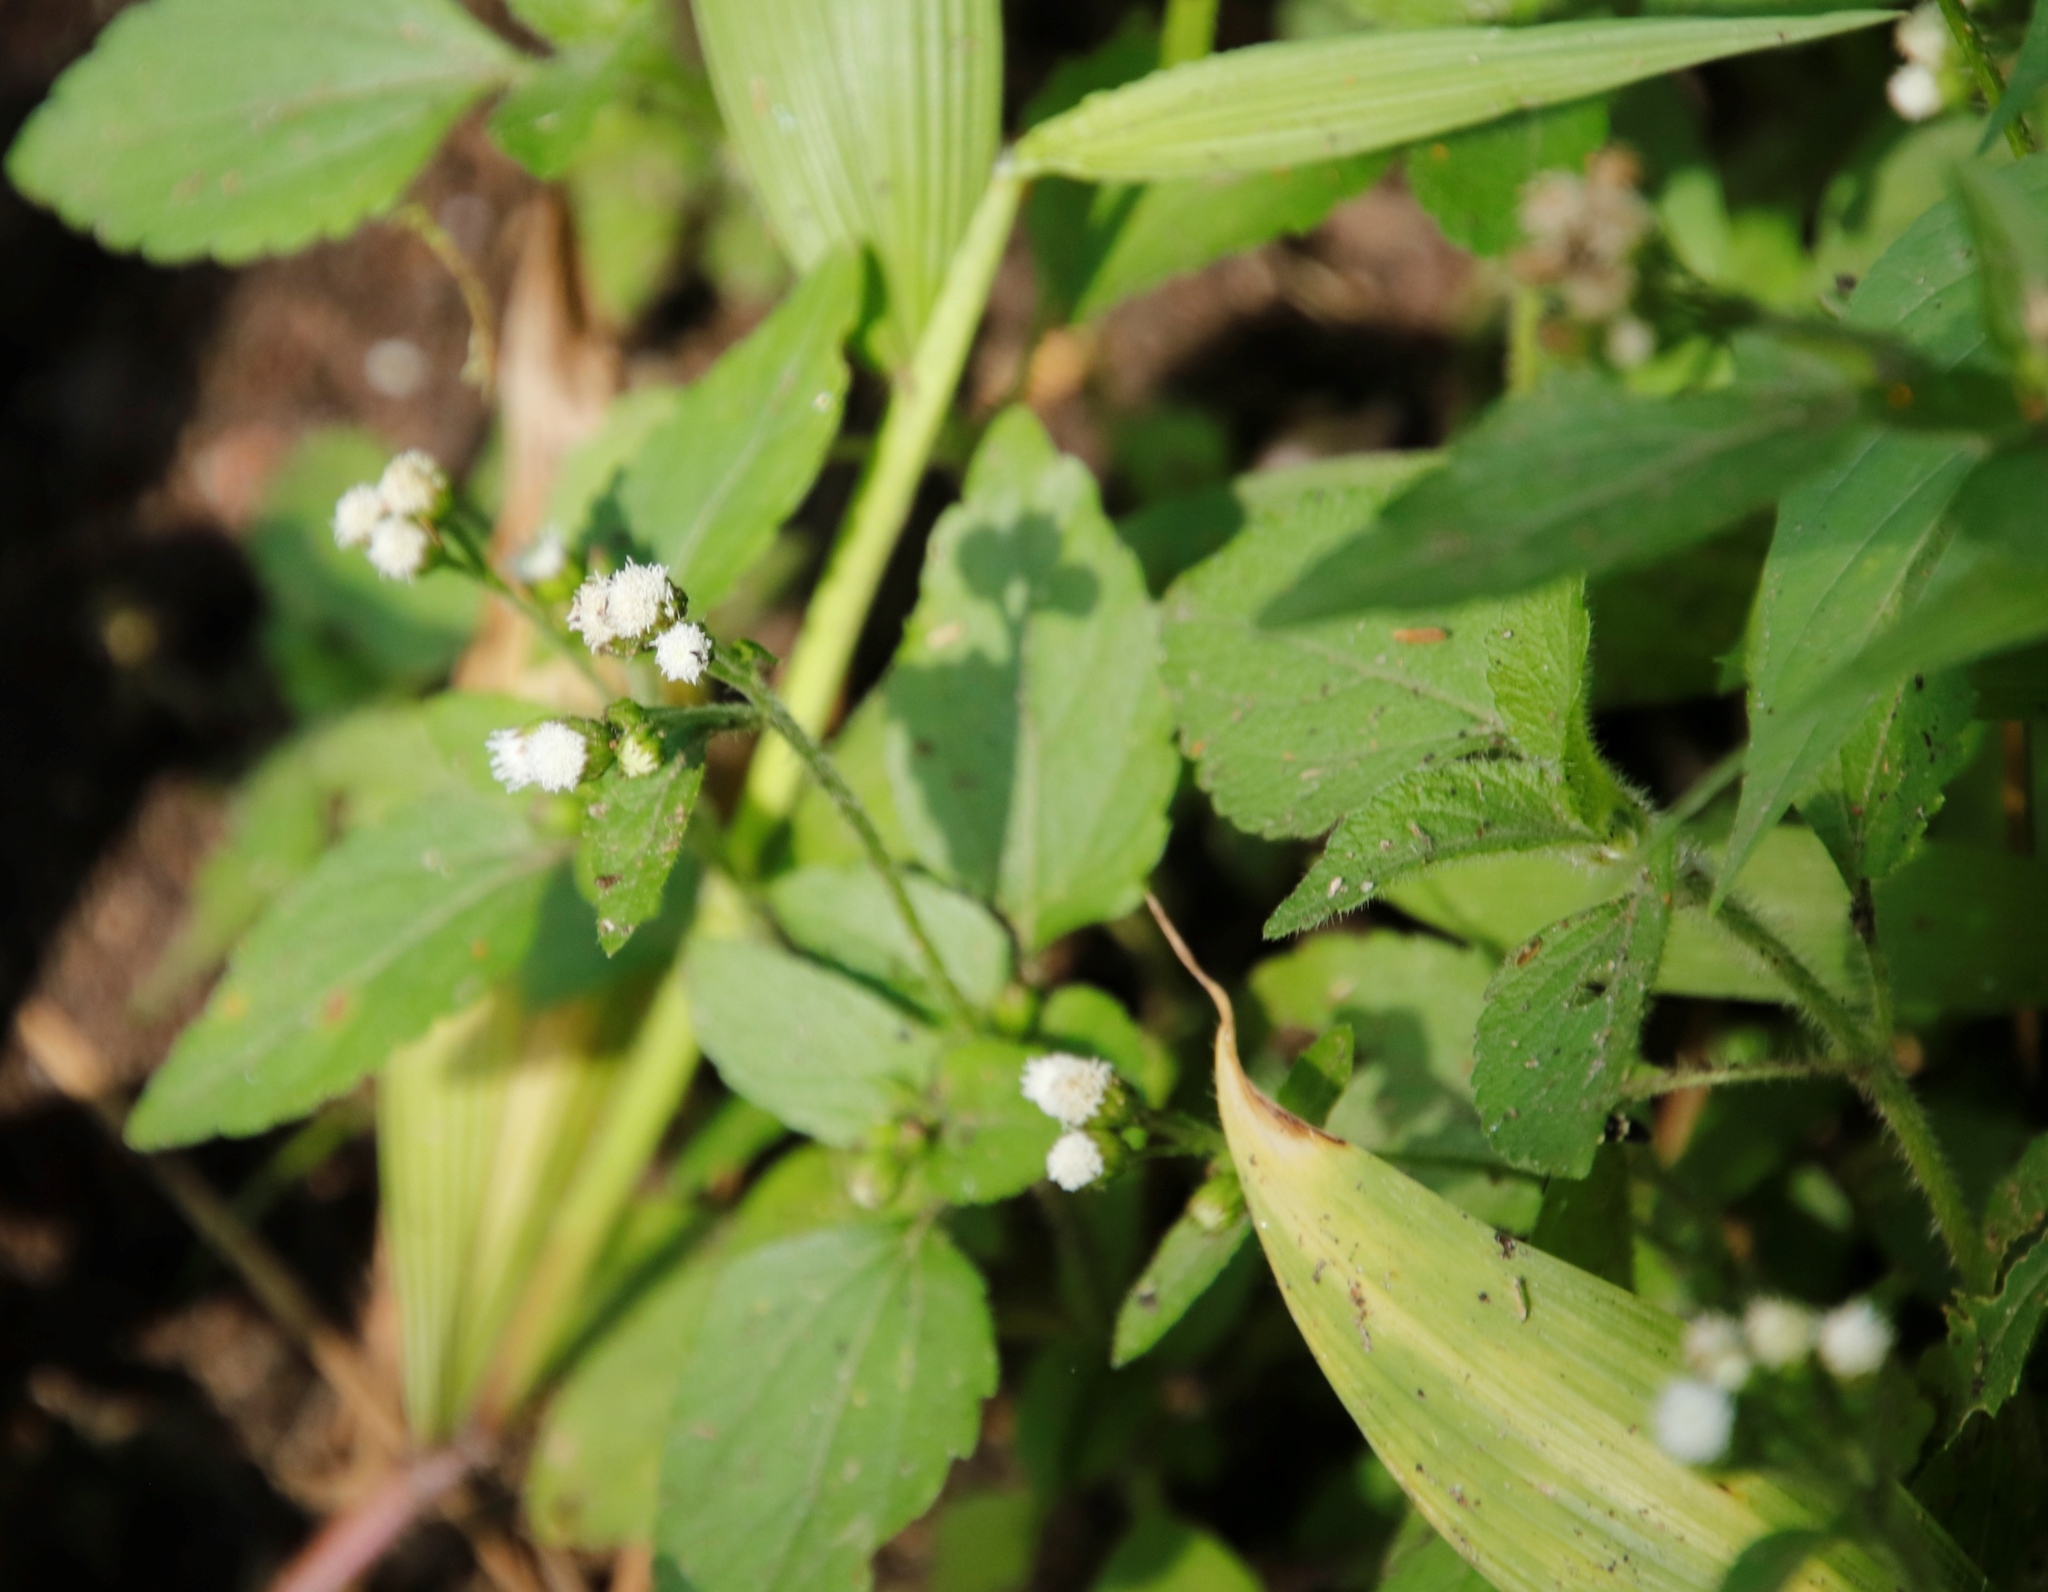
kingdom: Plantae
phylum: Tracheophyta
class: Magnoliopsida
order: Asterales
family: Asteraceae
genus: Ageratum
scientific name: Ageratum conyzoides
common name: Tropical whiteweed
